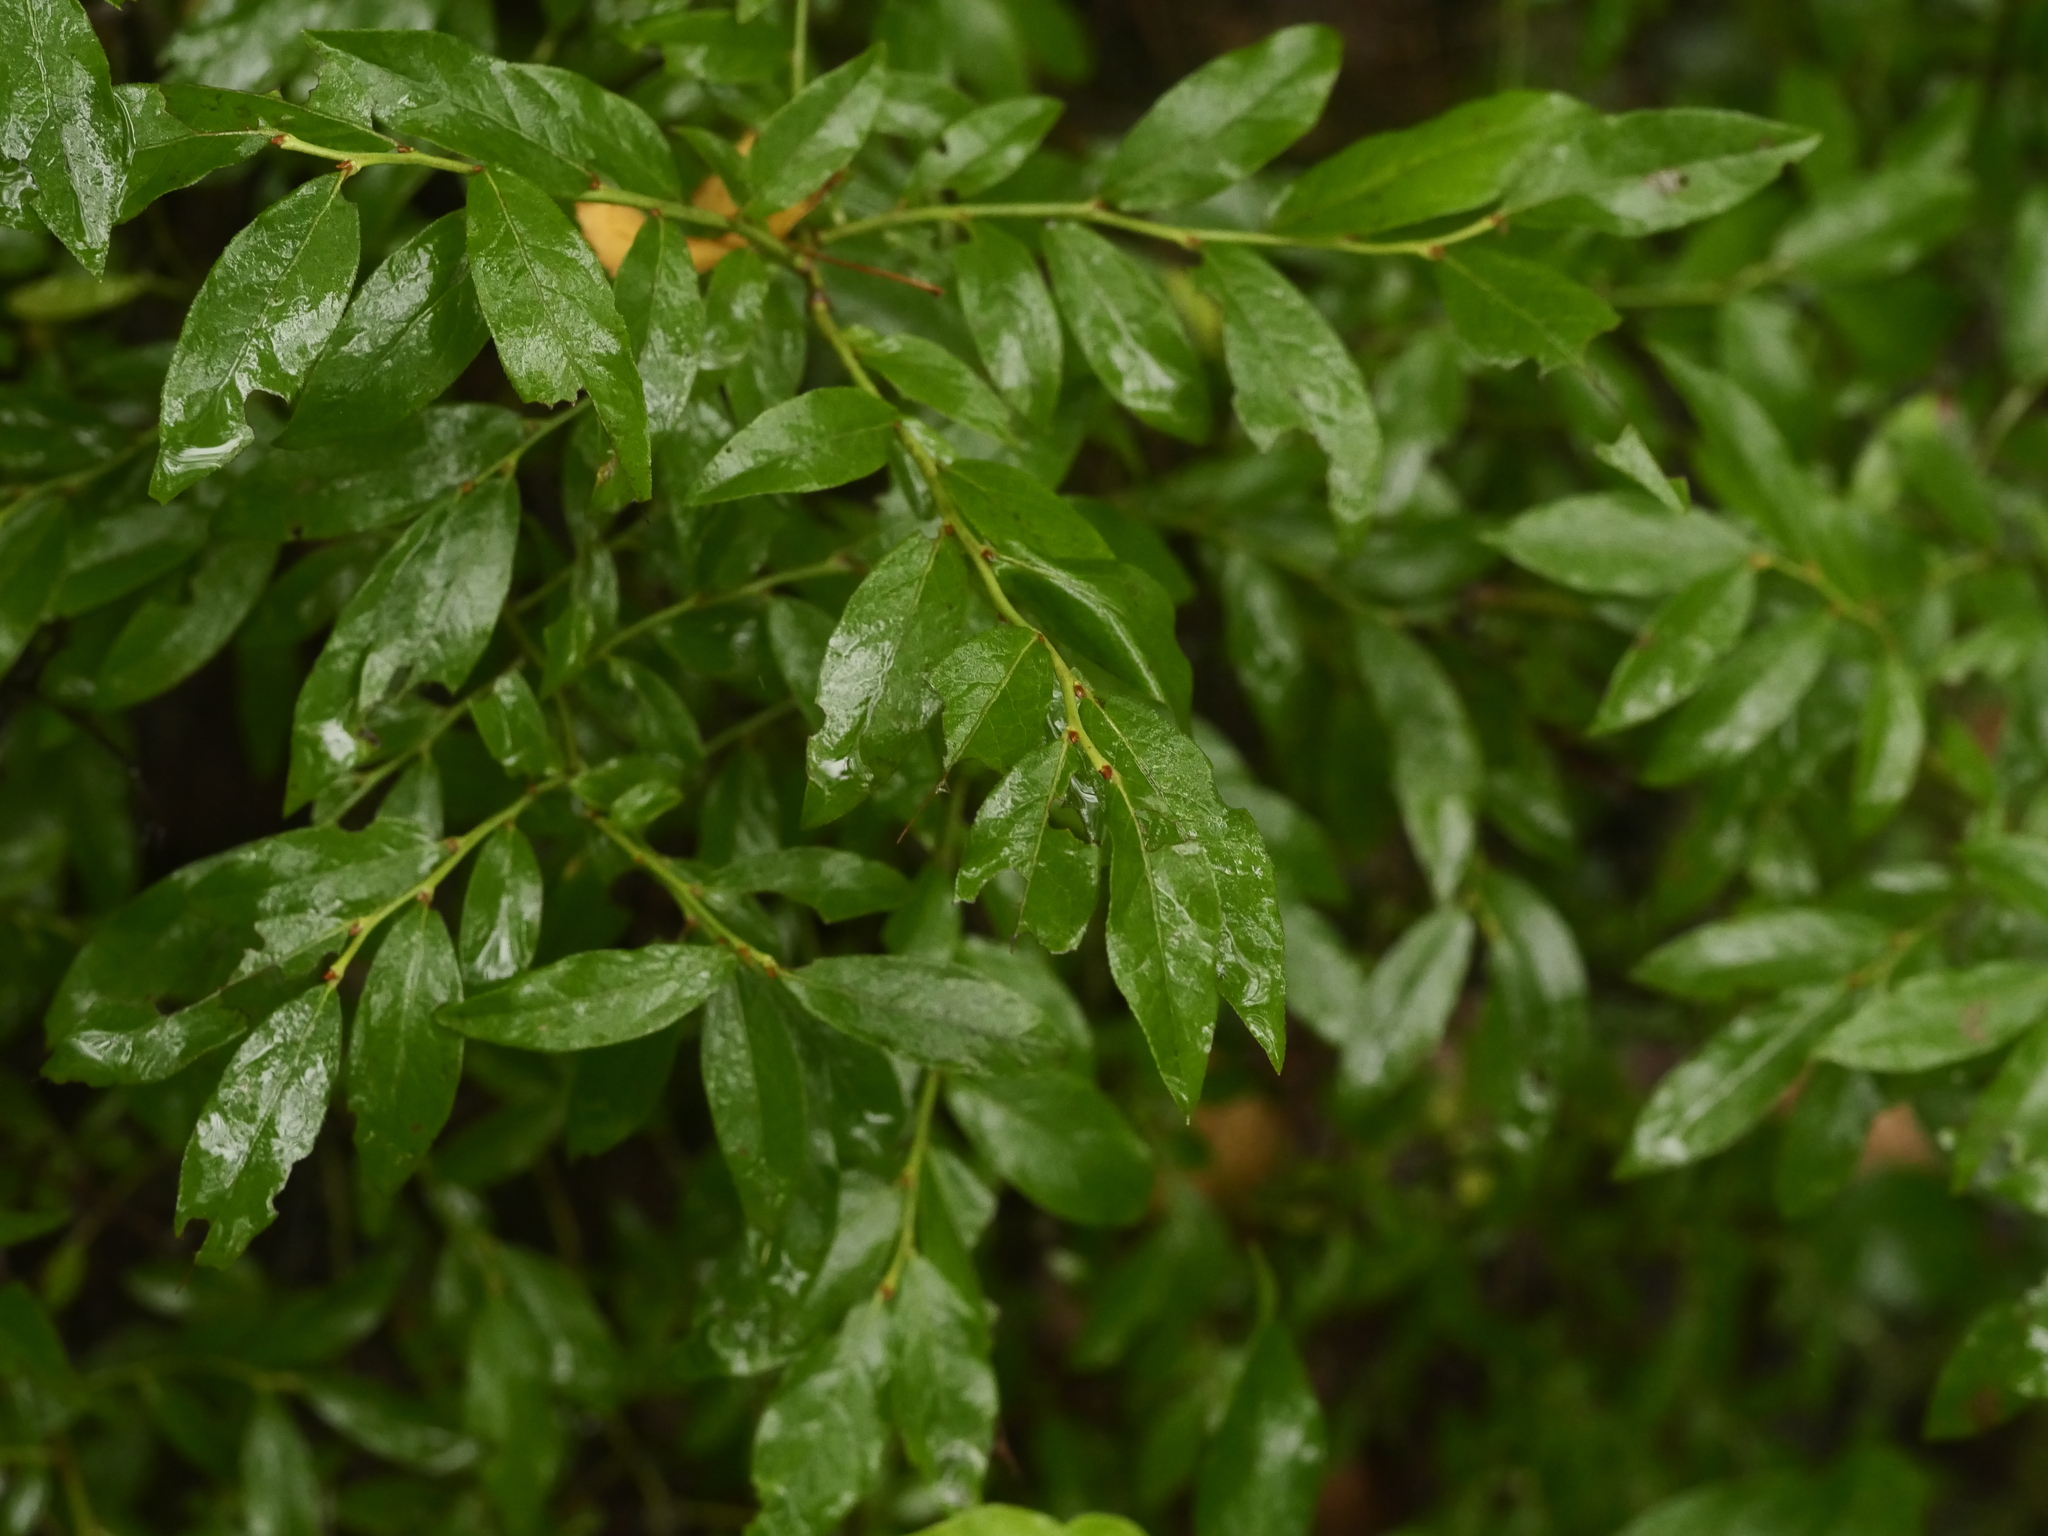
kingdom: Plantae
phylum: Tracheophyta
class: Magnoliopsida
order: Ericales
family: Ericaceae
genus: Vaccinium
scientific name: Vaccinium angustifolium
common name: Early lowbush blueberry
